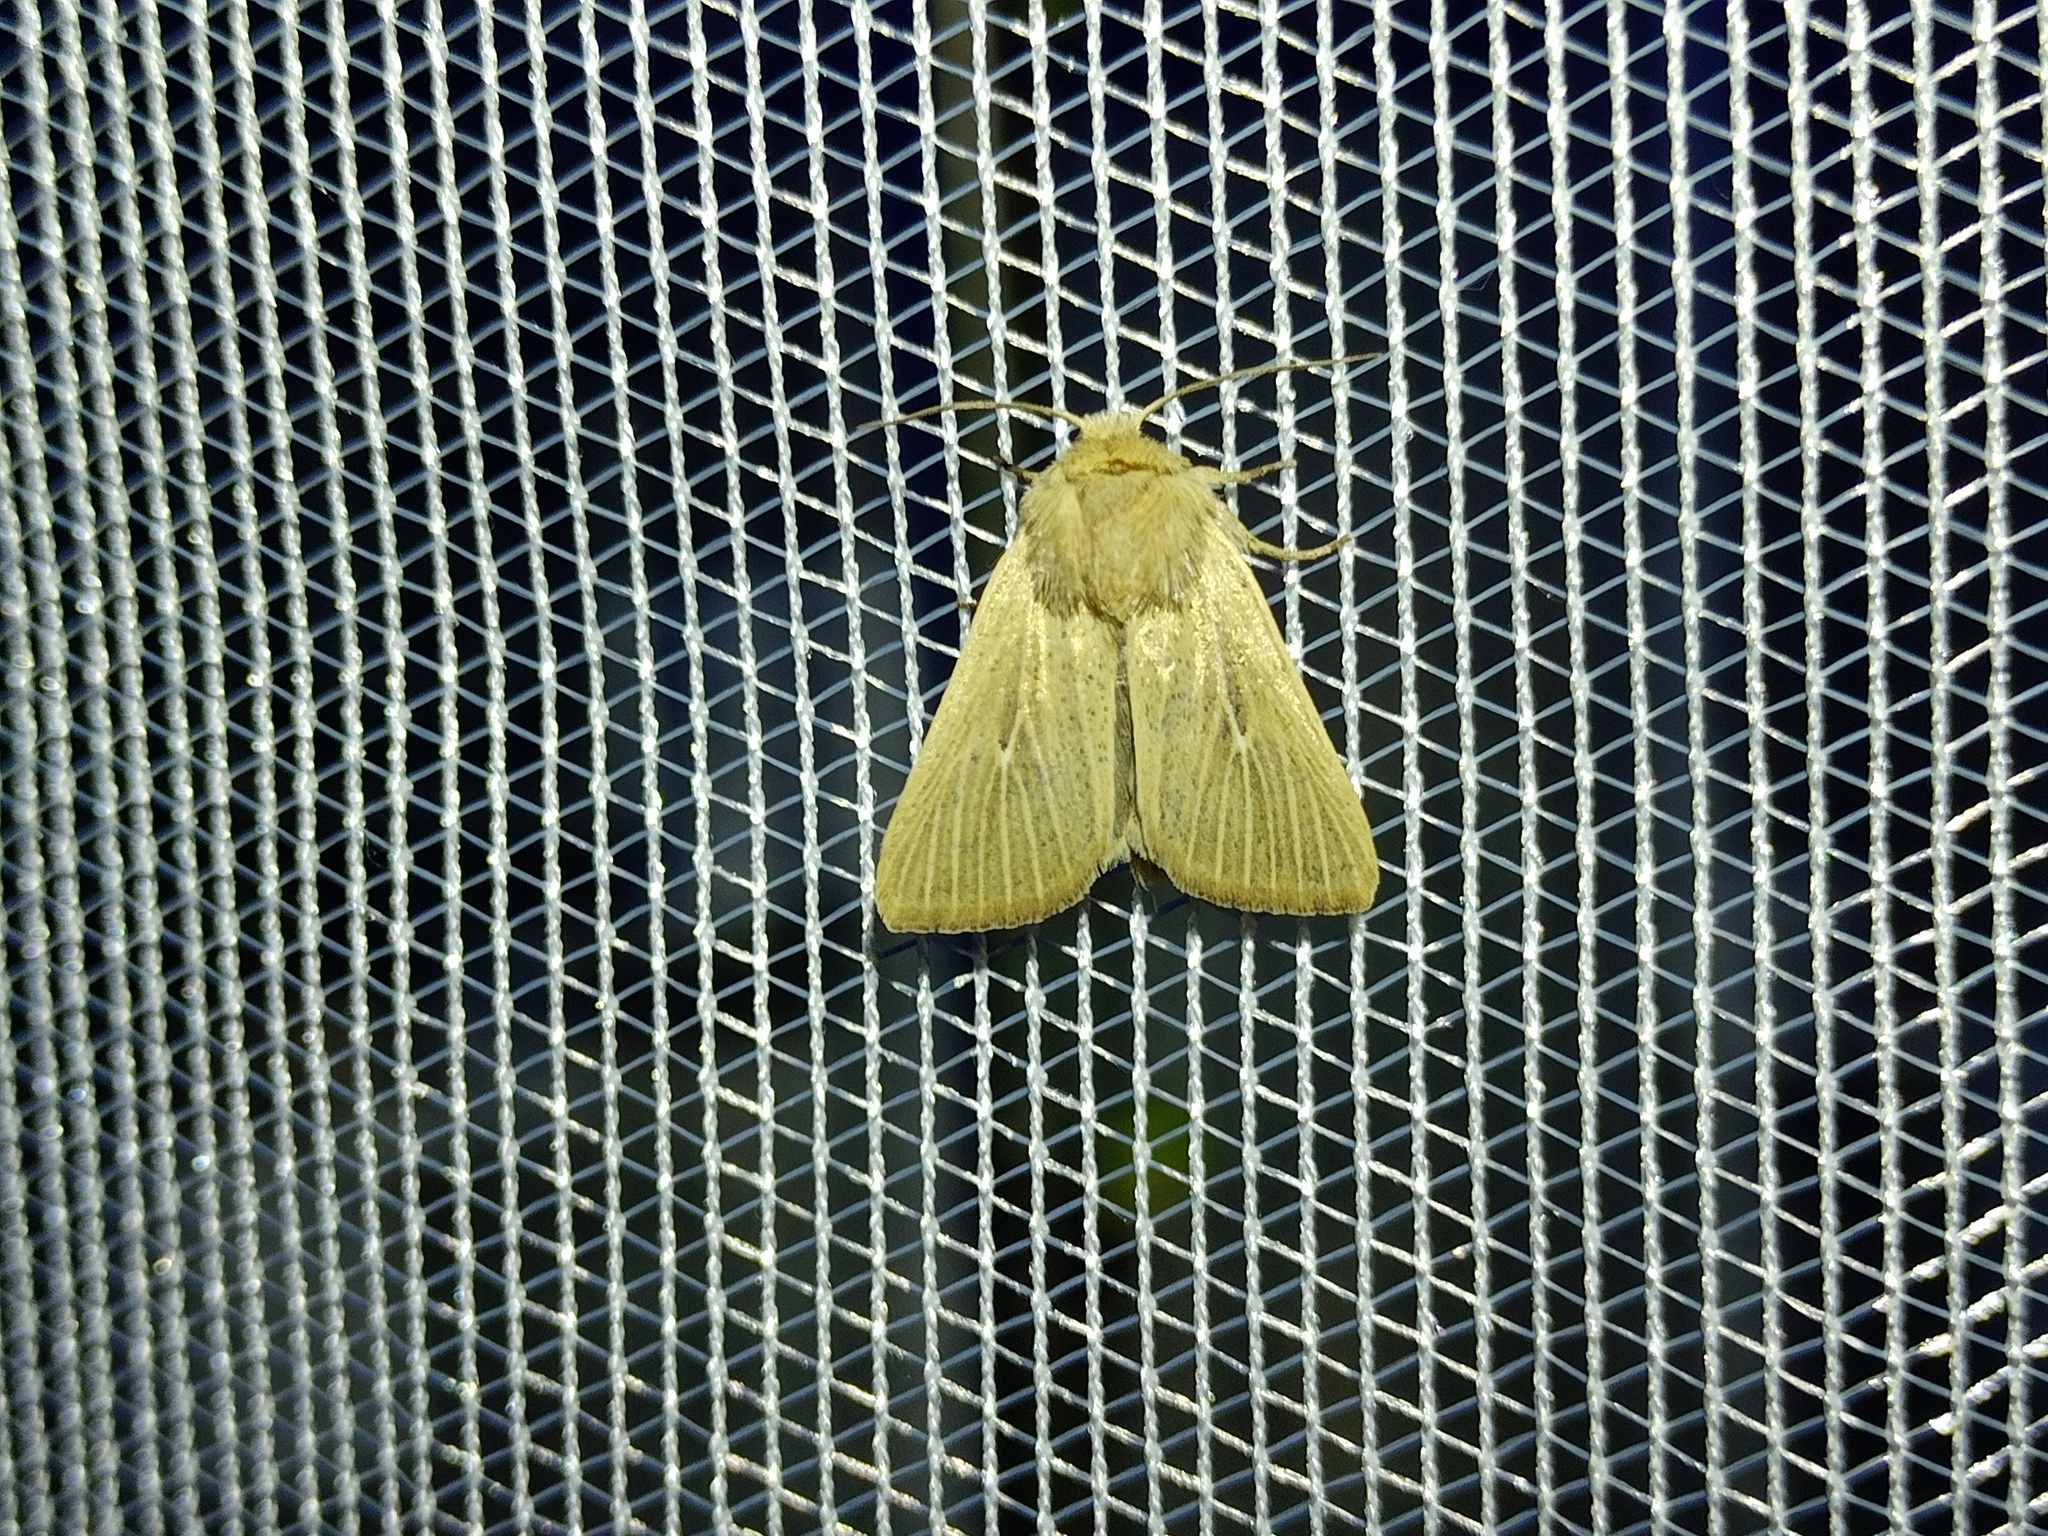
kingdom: Animalia
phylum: Arthropoda
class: Insecta
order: Lepidoptera
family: Noctuidae
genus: Mythimna
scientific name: Mythimna congrua
